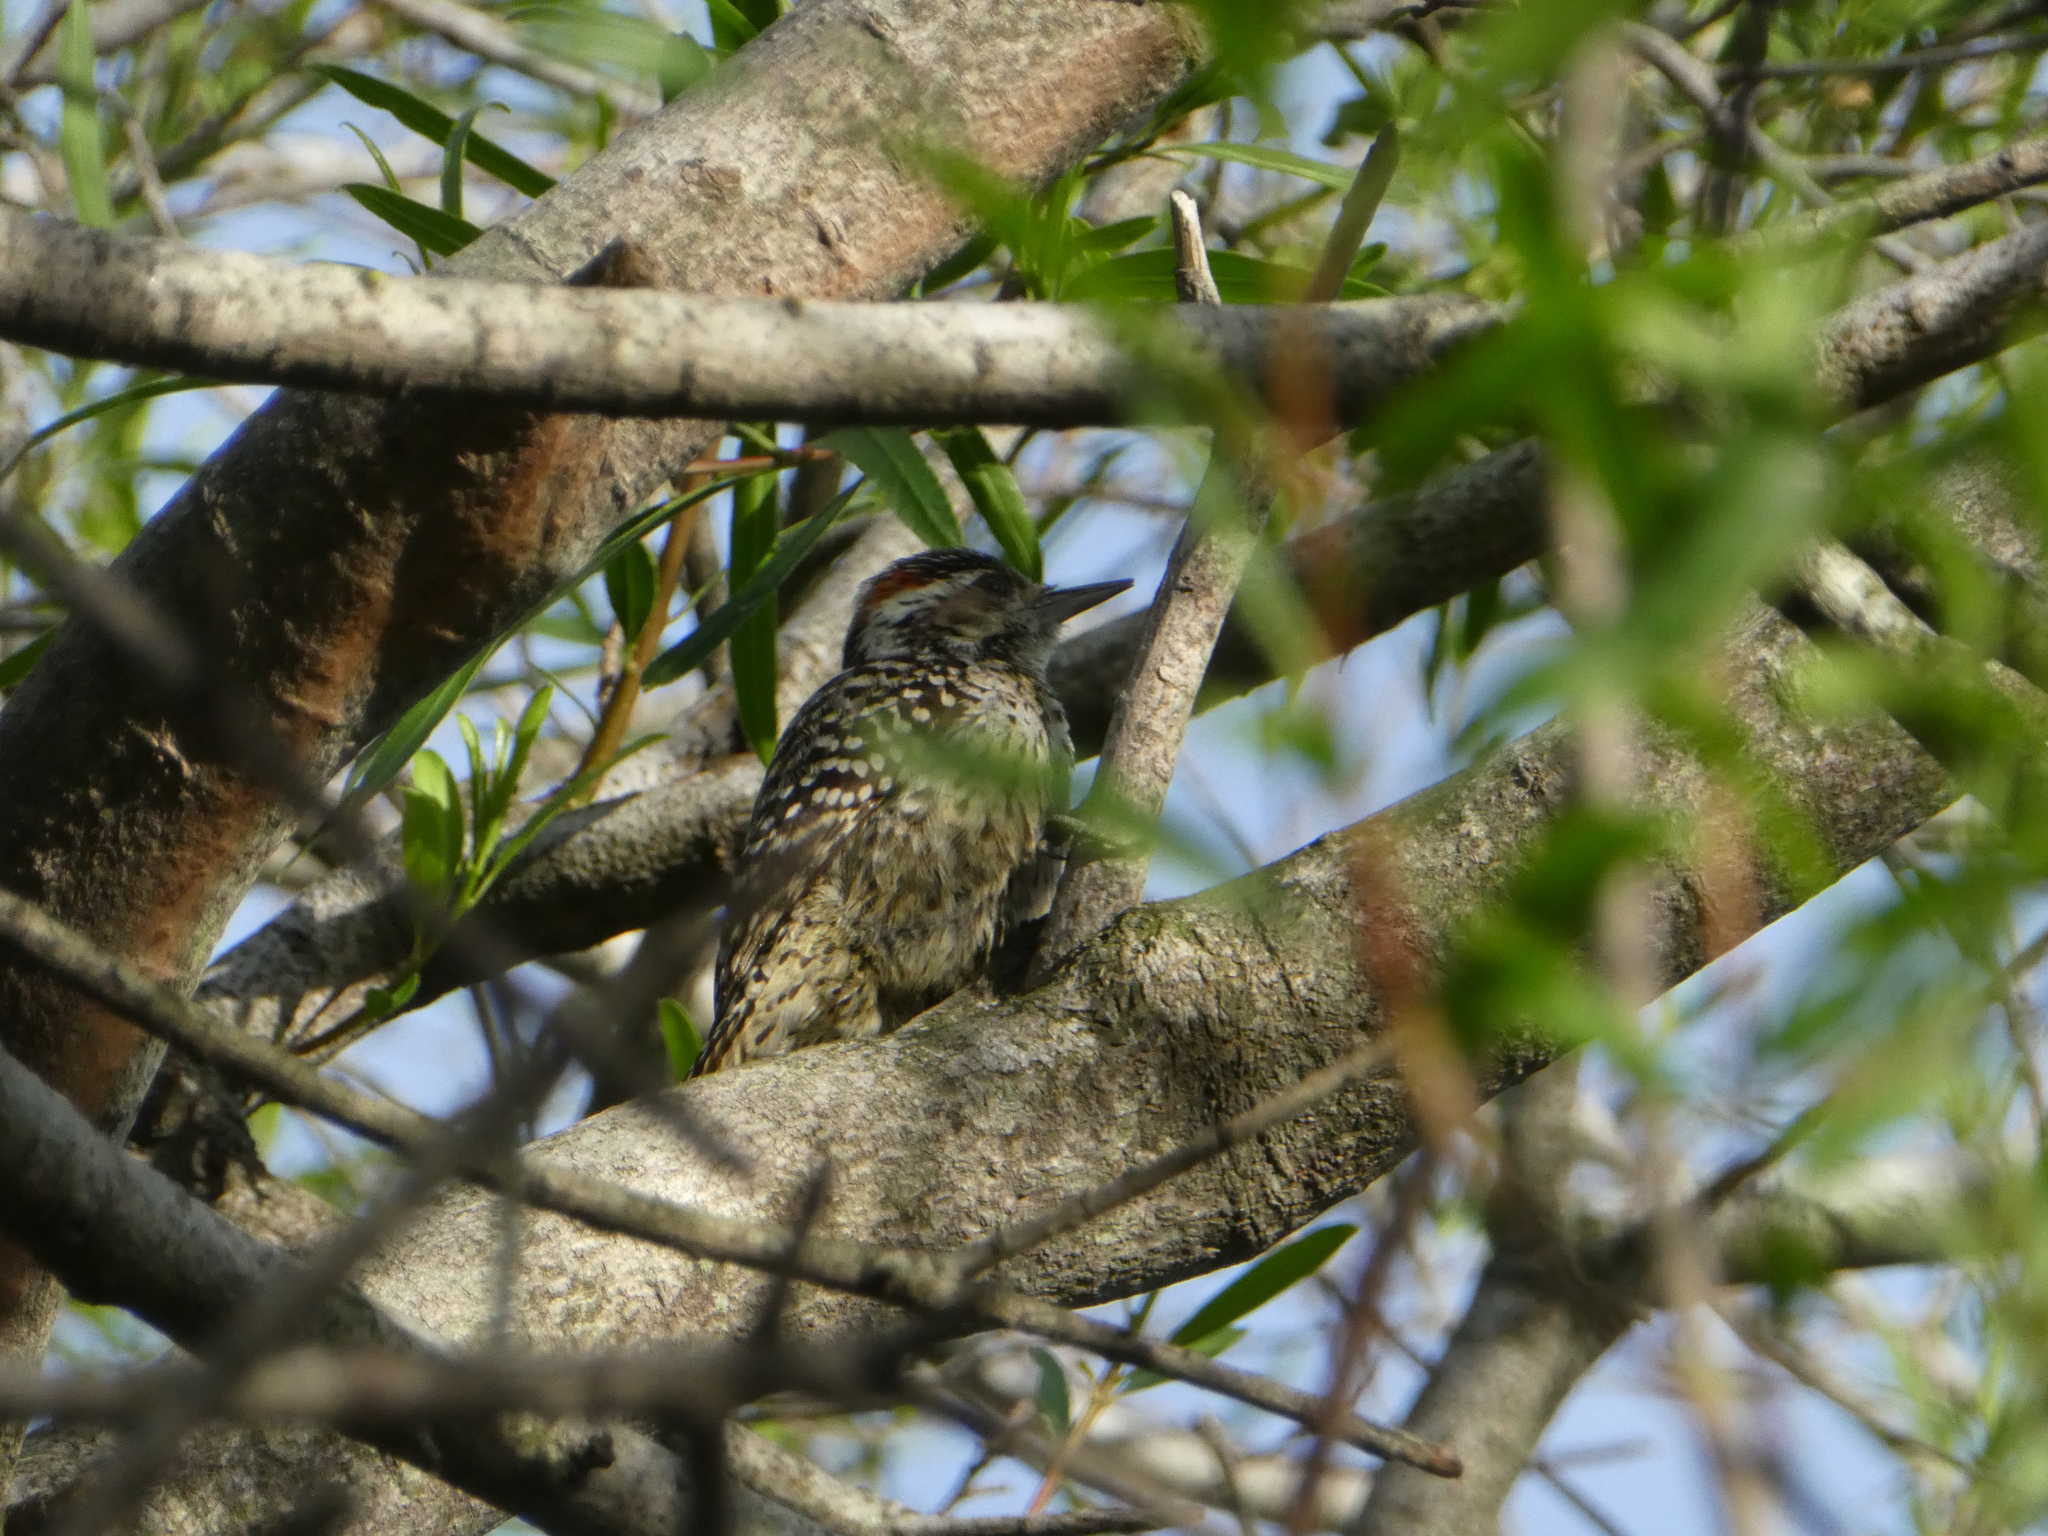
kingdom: Animalia
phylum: Chordata
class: Aves
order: Piciformes
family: Picidae
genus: Veniliornis
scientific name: Veniliornis mixtus
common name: Checkered woodpecker
